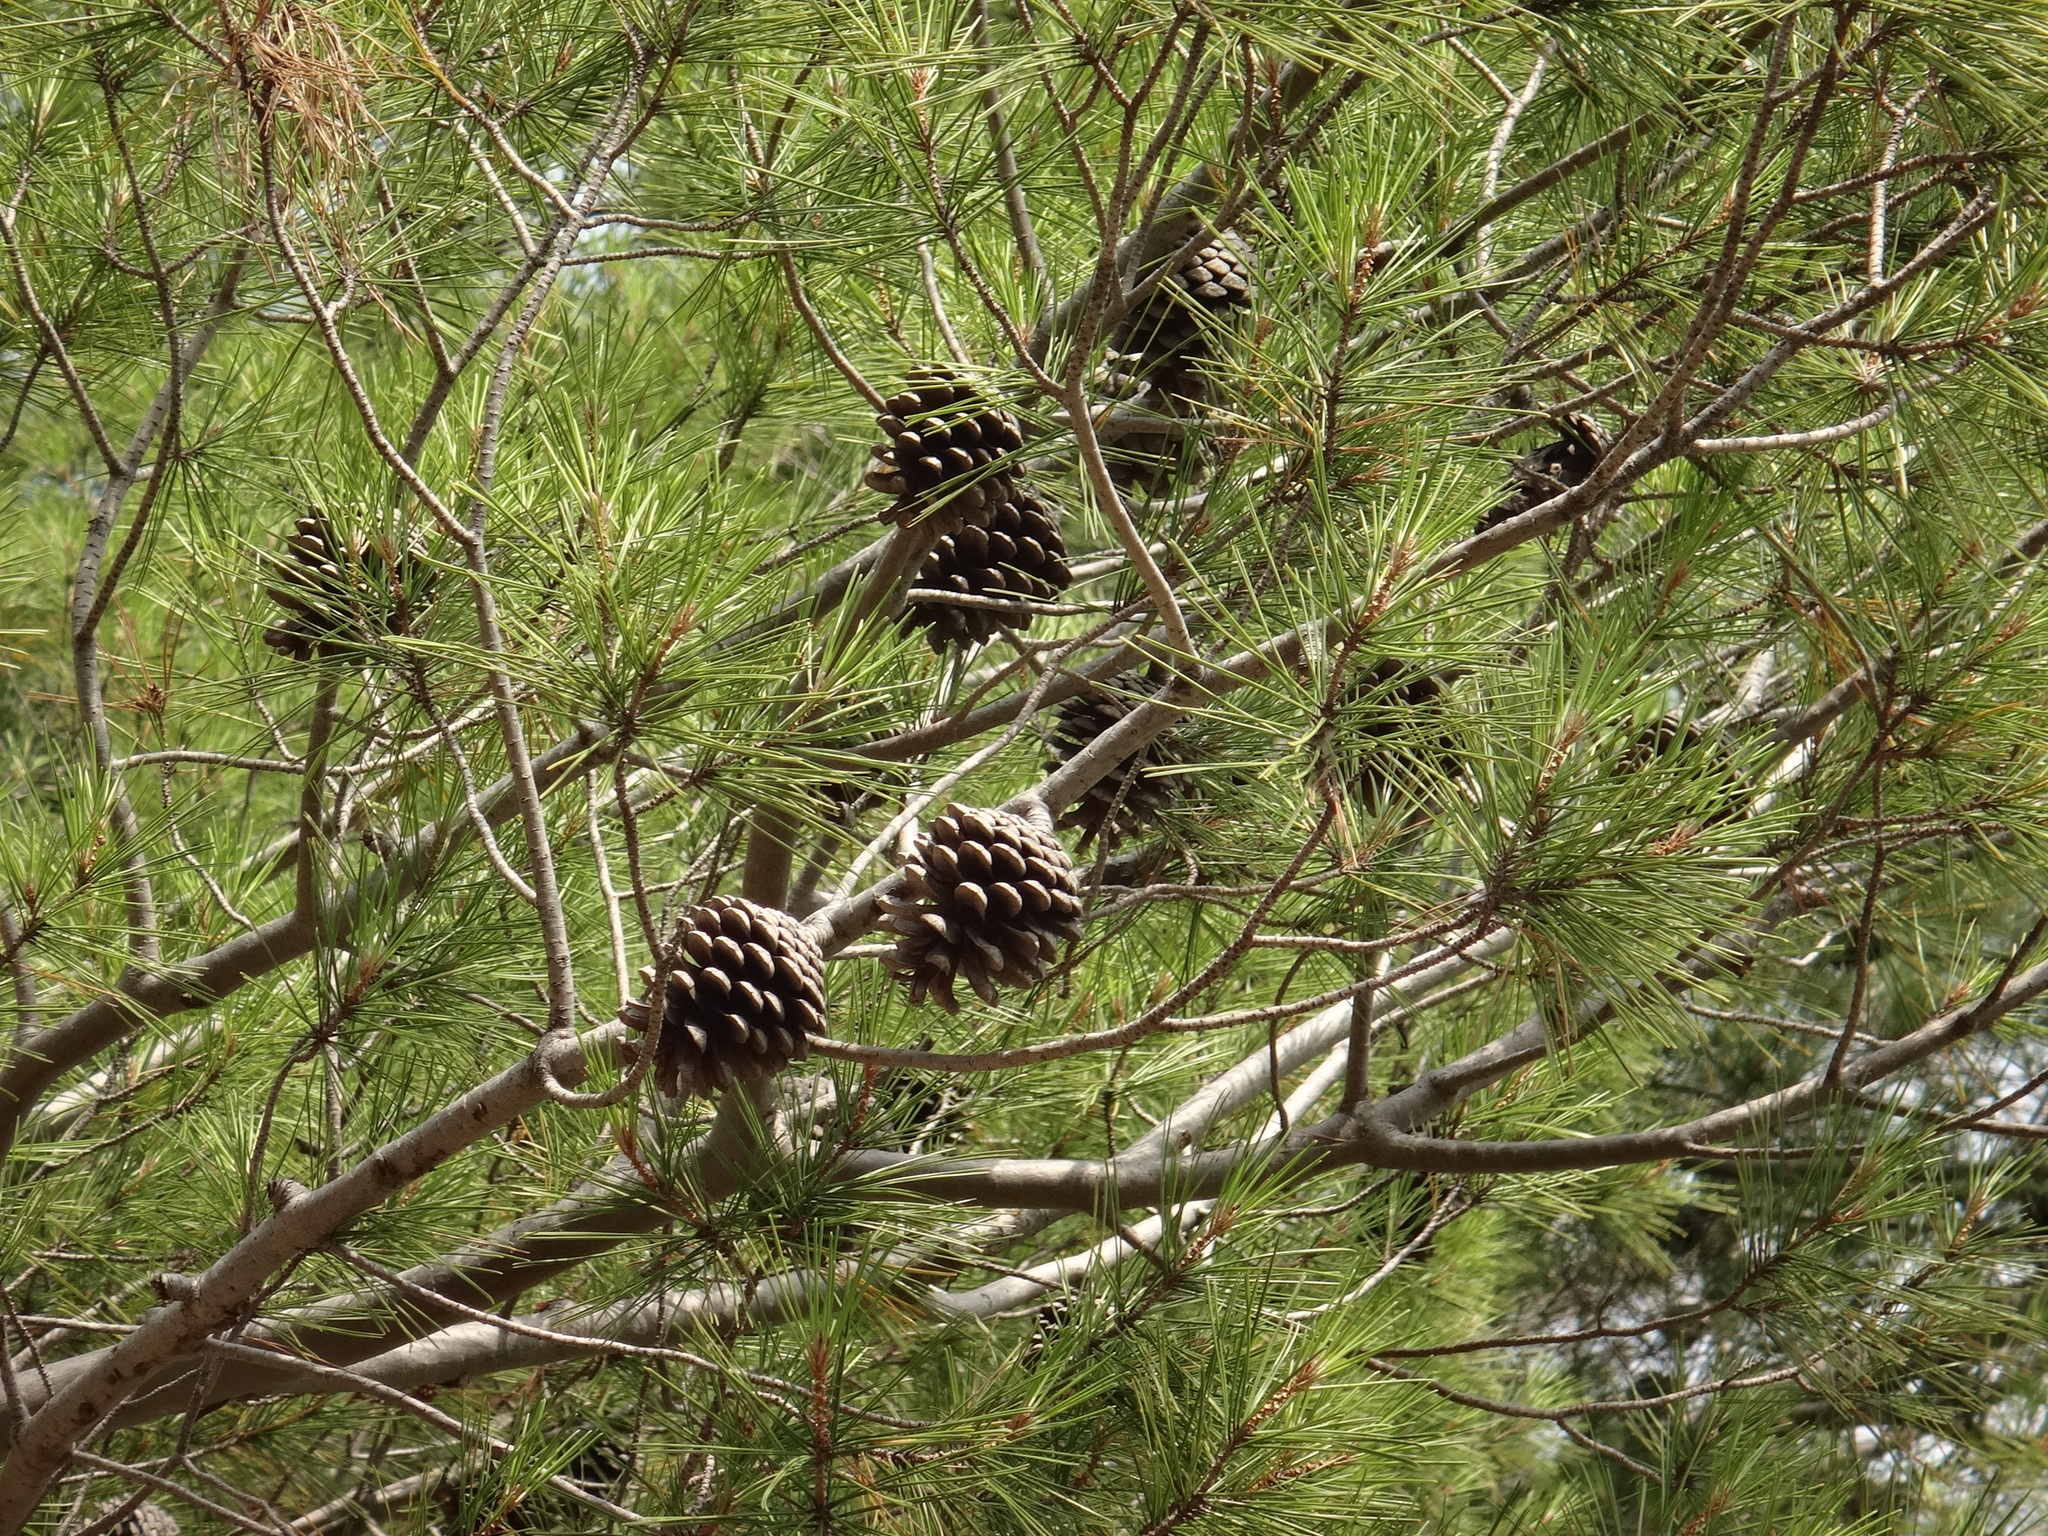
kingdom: Plantae
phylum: Tracheophyta
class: Pinopsida
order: Pinales
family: Pinaceae
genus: Pinus
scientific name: Pinus halepensis
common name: Aleppo pine
